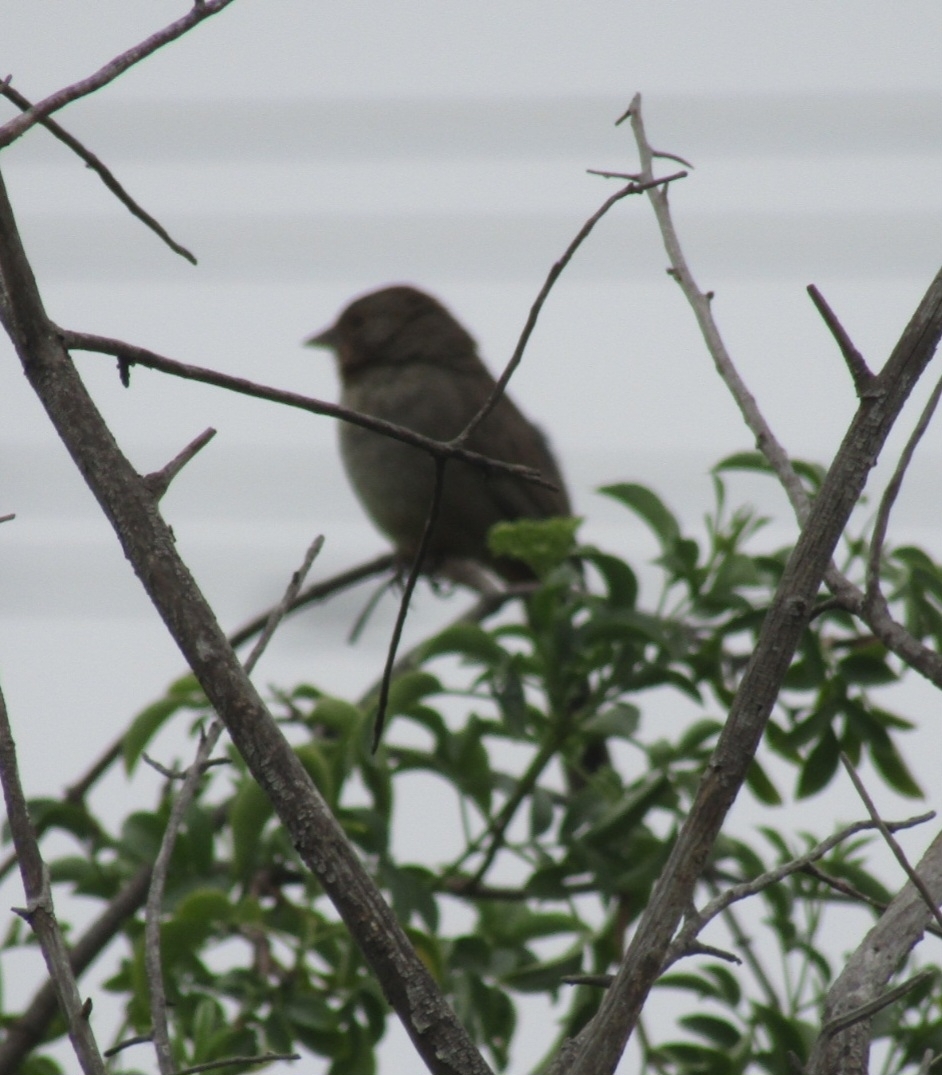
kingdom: Animalia
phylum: Chordata
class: Aves
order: Passeriformes
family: Passerellidae
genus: Melozone
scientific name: Melozone crissalis
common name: California towhee
